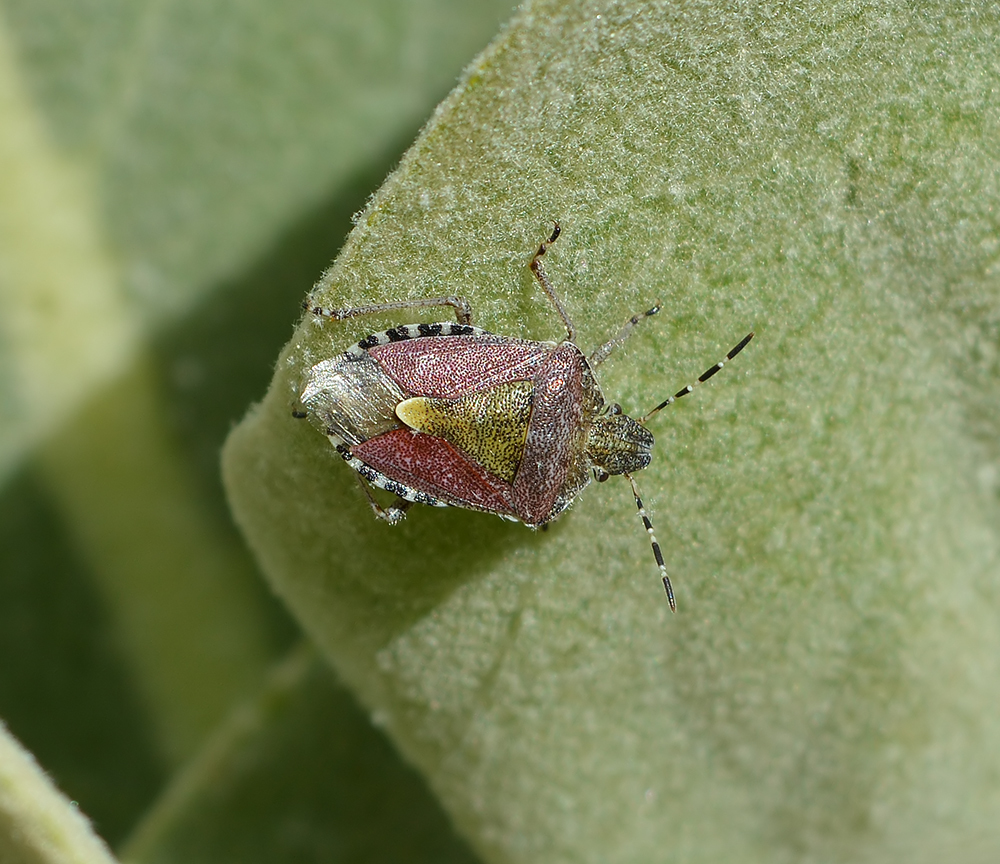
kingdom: Animalia
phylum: Arthropoda
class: Insecta
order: Hemiptera
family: Pentatomidae
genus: Dolycoris
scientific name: Dolycoris baccarum
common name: Sloe bug
